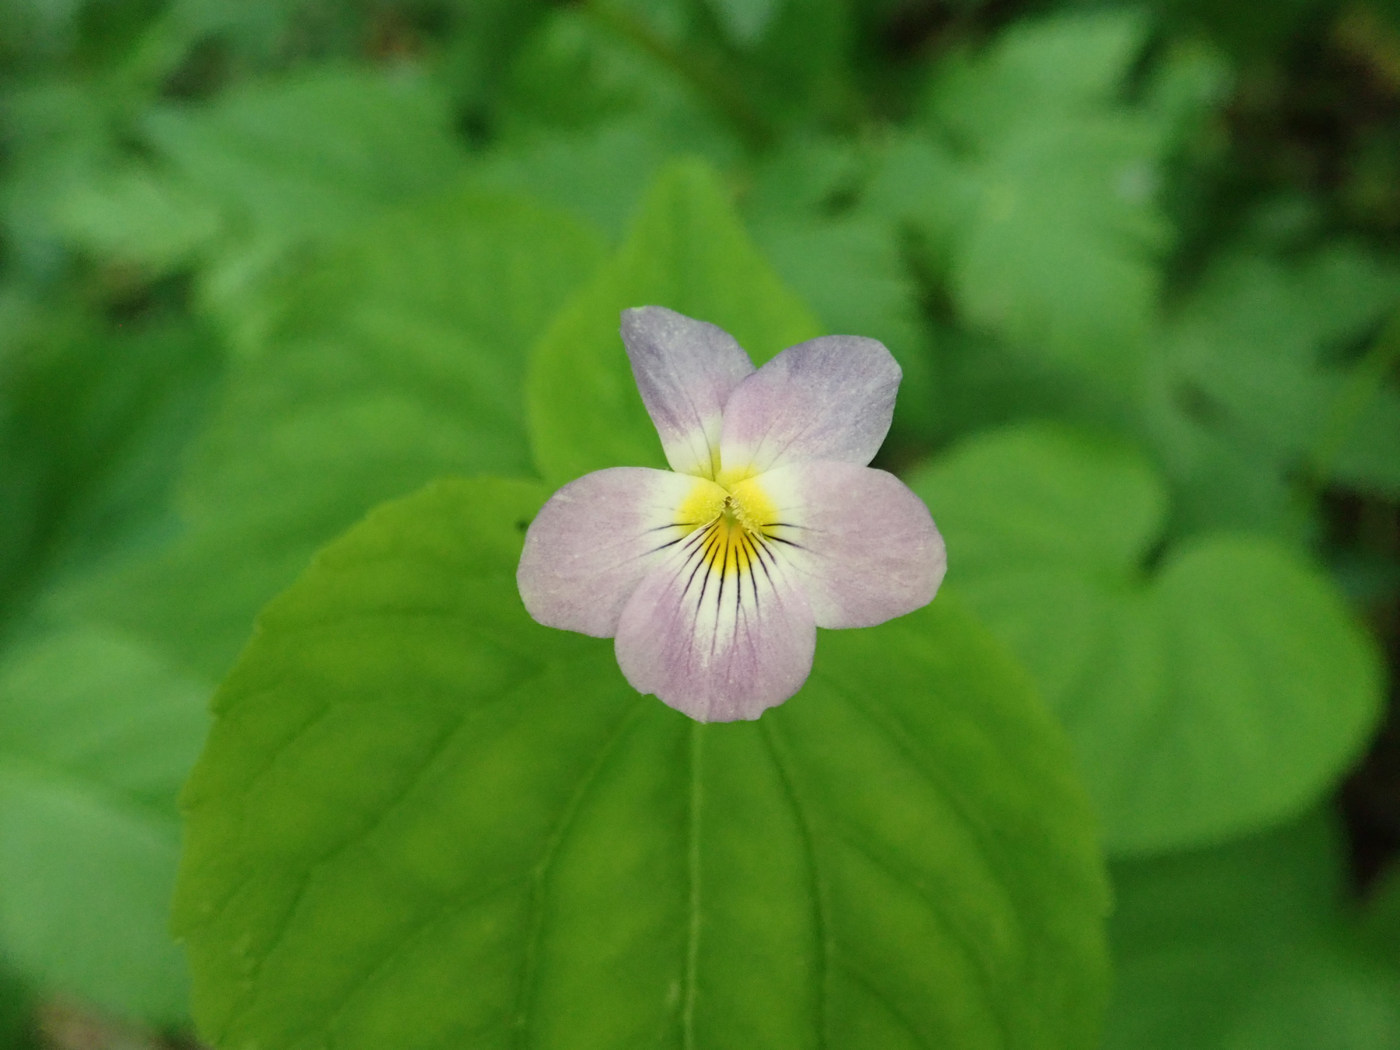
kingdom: Plantae
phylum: Tracheophyta
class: Magnoliopsida
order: Malpighiales
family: Violaceae
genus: Viola
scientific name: Viola canadensis
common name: Canada violet
